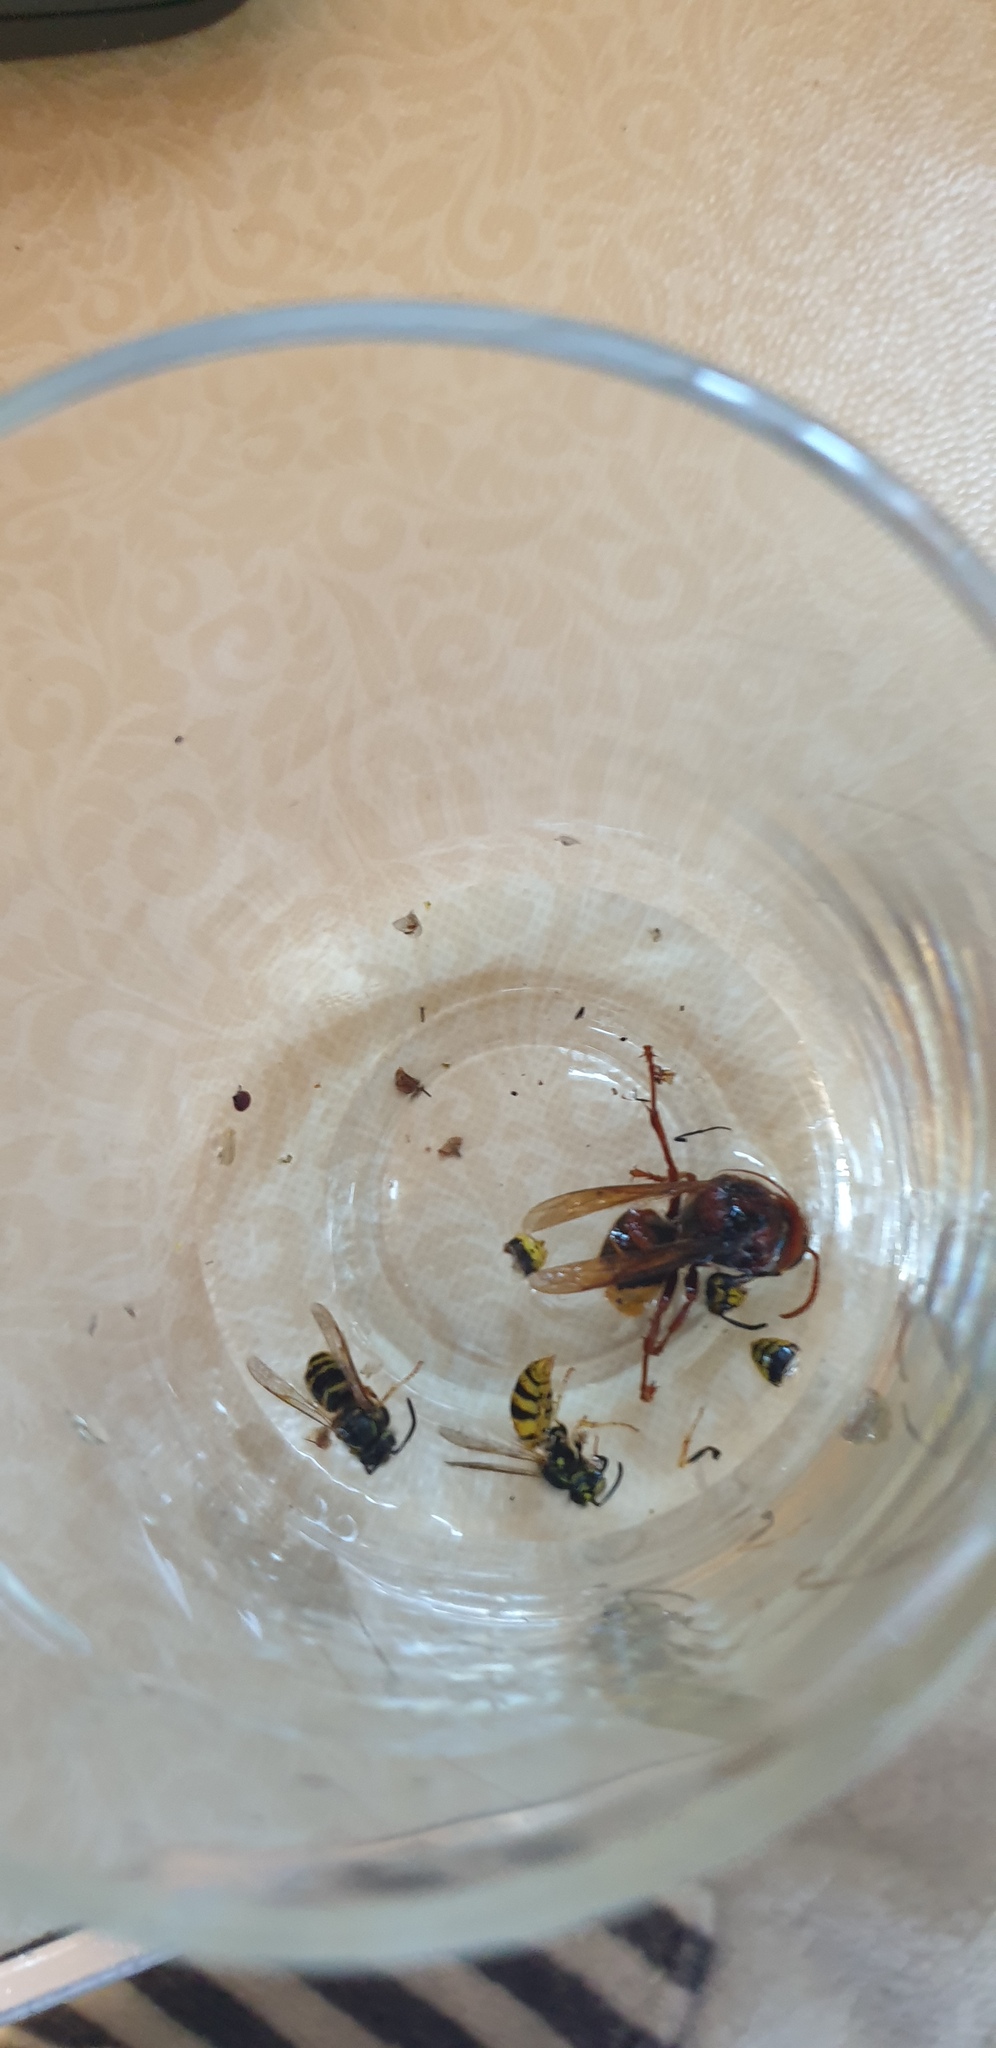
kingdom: Animalia
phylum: Arthropoda
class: Insecta
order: Hymenoptera
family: Vespidae
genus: Vespa
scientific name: Vespa crabro
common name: Hornet
